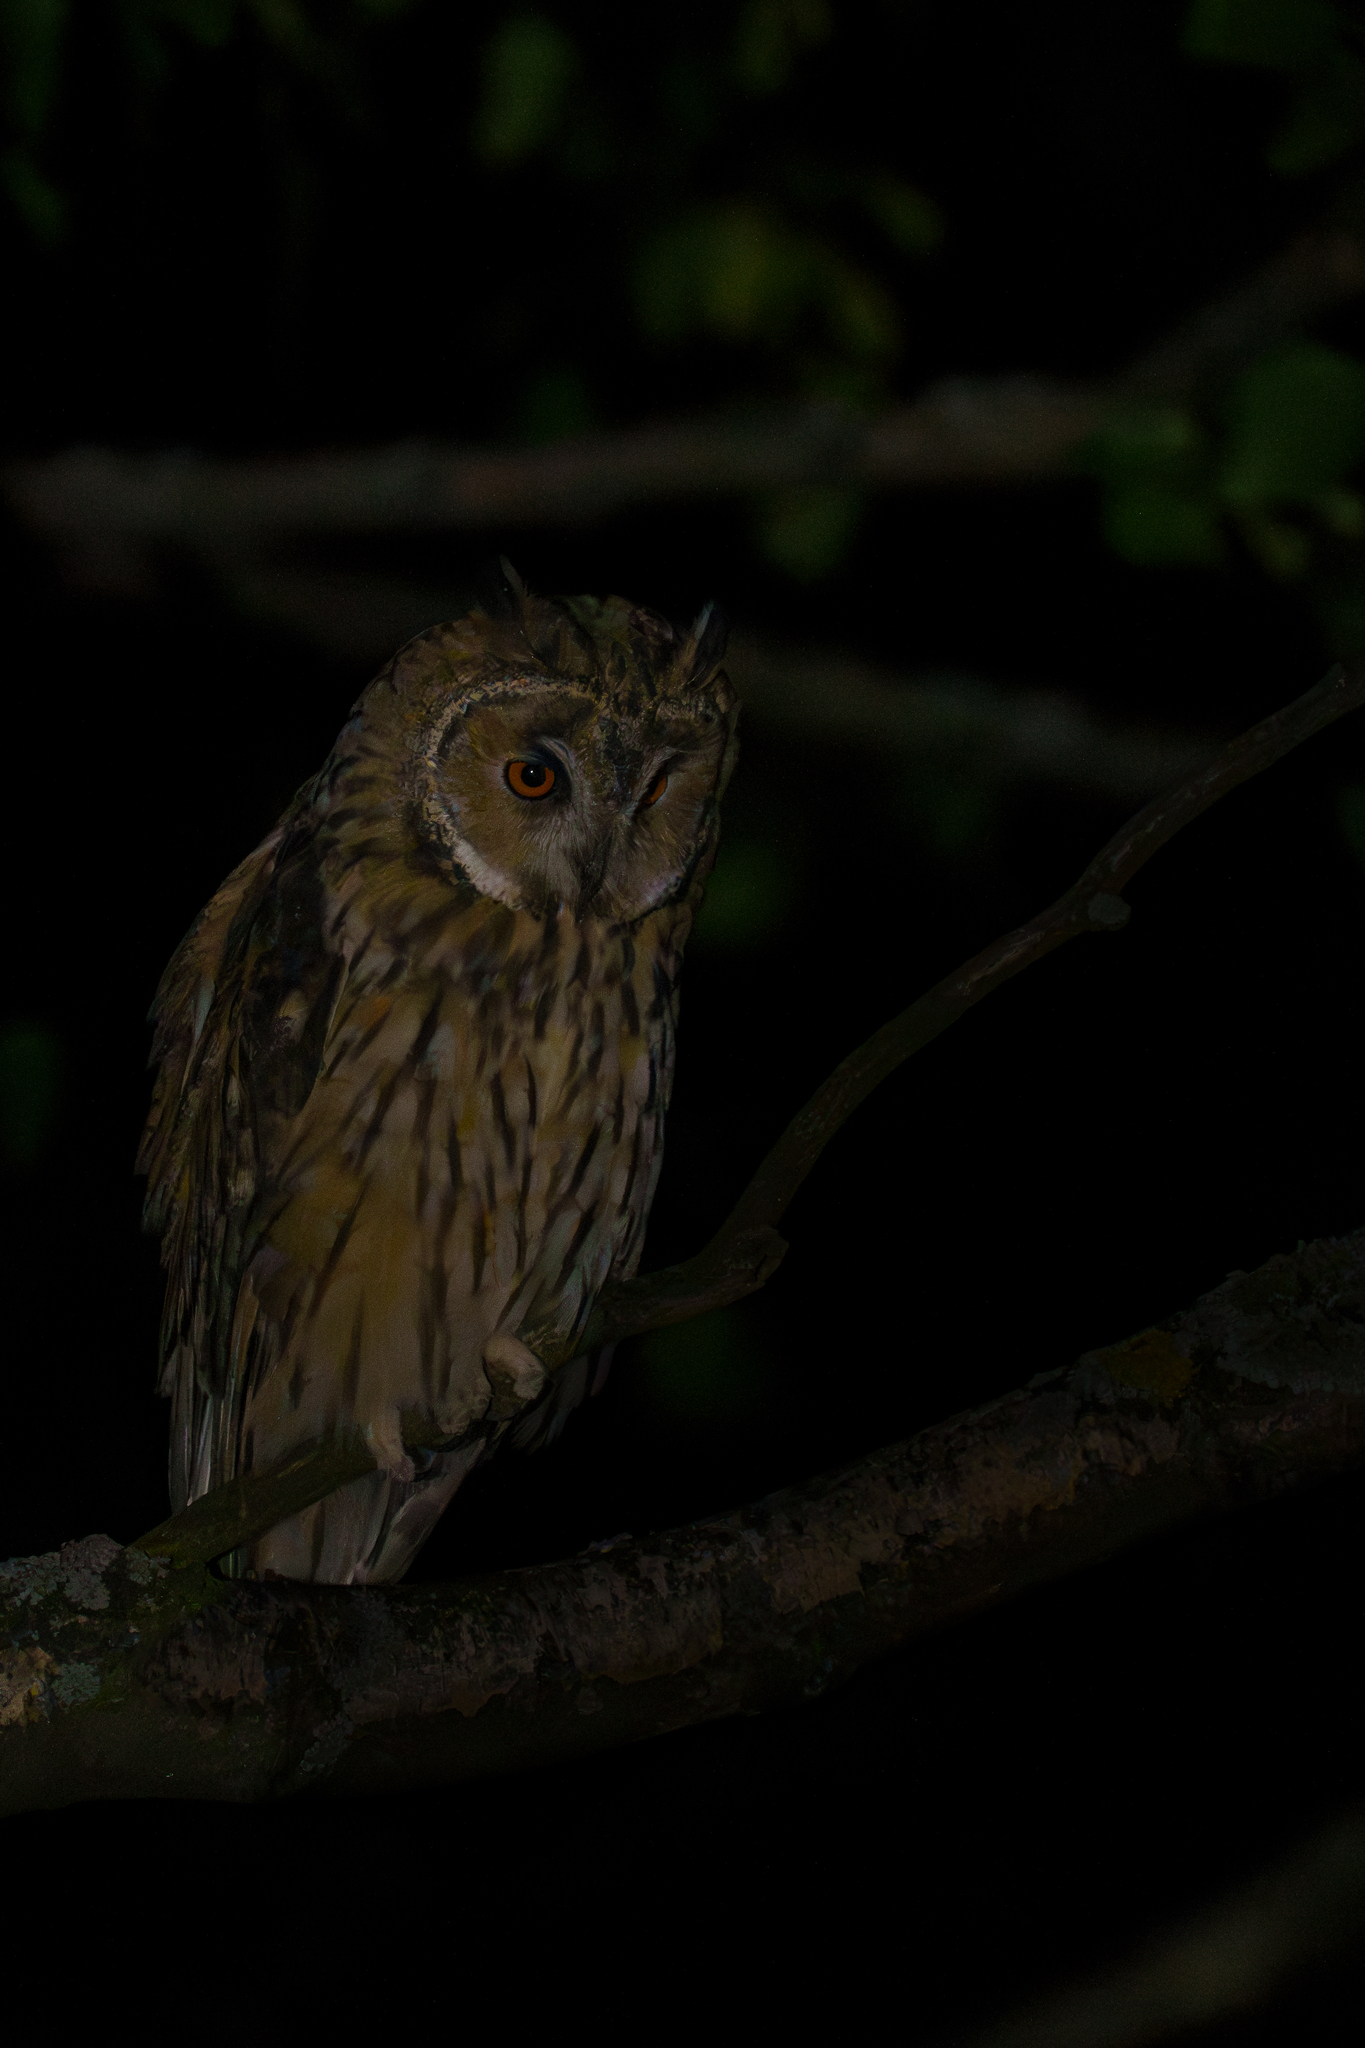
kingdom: Animalia
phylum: Chordata
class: Aves
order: Strigiformes
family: Strigidae
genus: Asio
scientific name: Asio otus
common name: Long-eared owl
